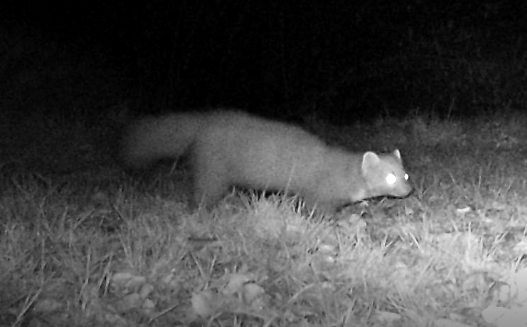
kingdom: Animalia
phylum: Chordata
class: Mammalia
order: Carnivora
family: Mustelidae
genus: Martes
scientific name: Martes martes
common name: European pine marten
